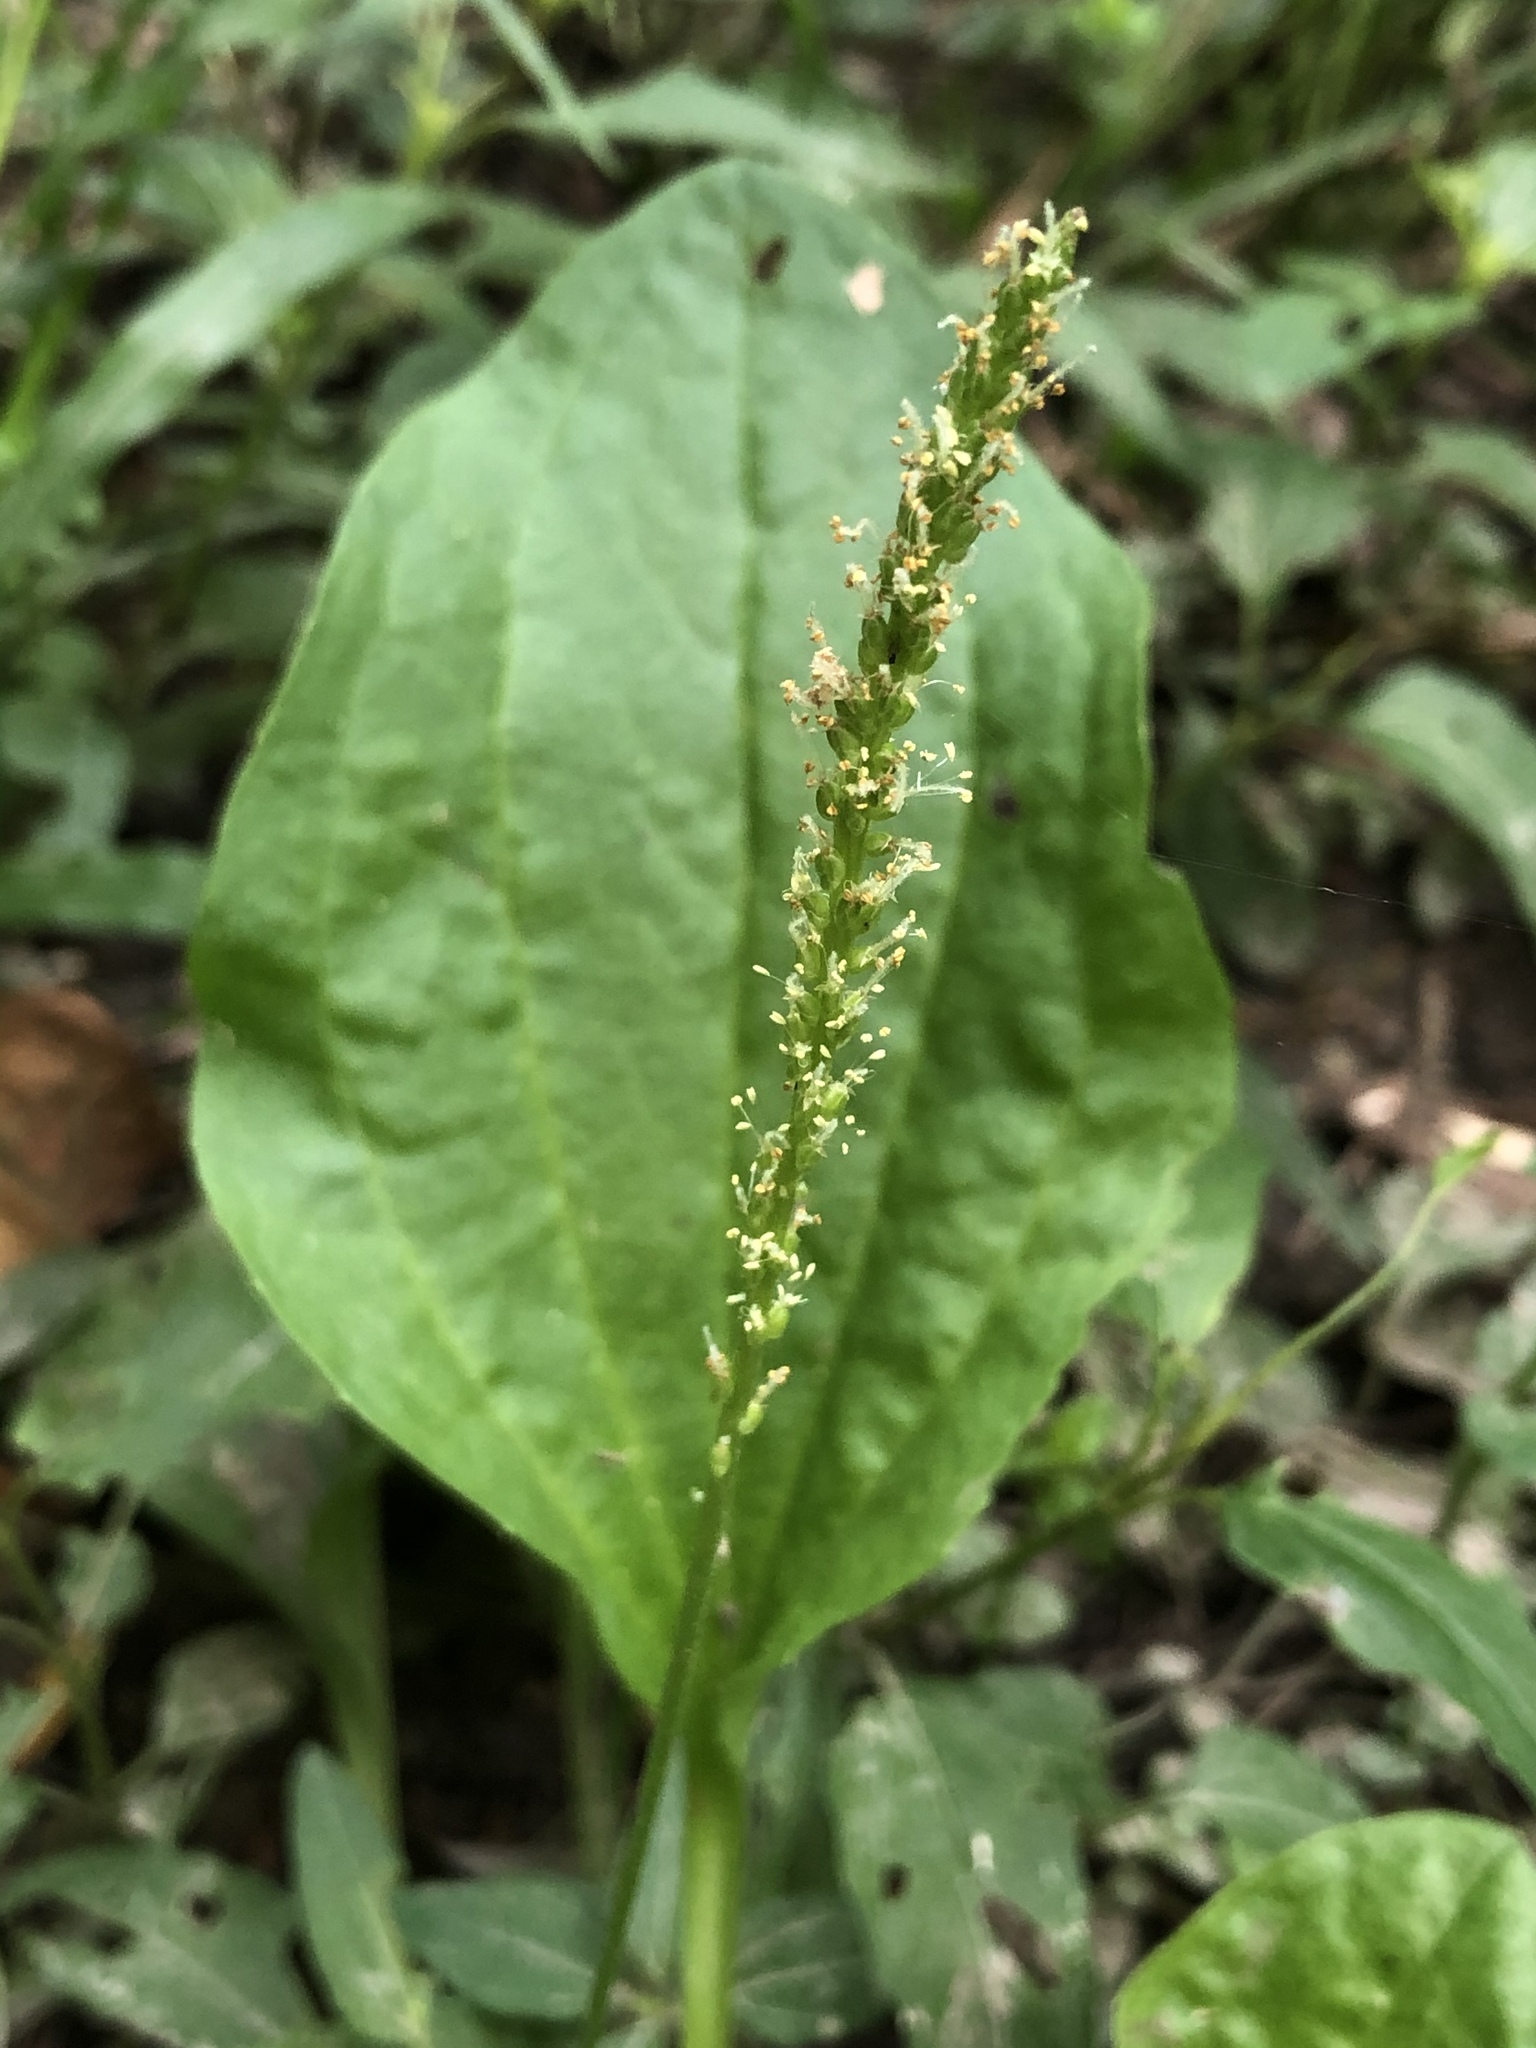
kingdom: Plantae
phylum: Tracheophyta
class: Magnoliopsida
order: Lamiales
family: Plantaginaceae
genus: Plantago
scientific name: Plantago major
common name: Common plantain
